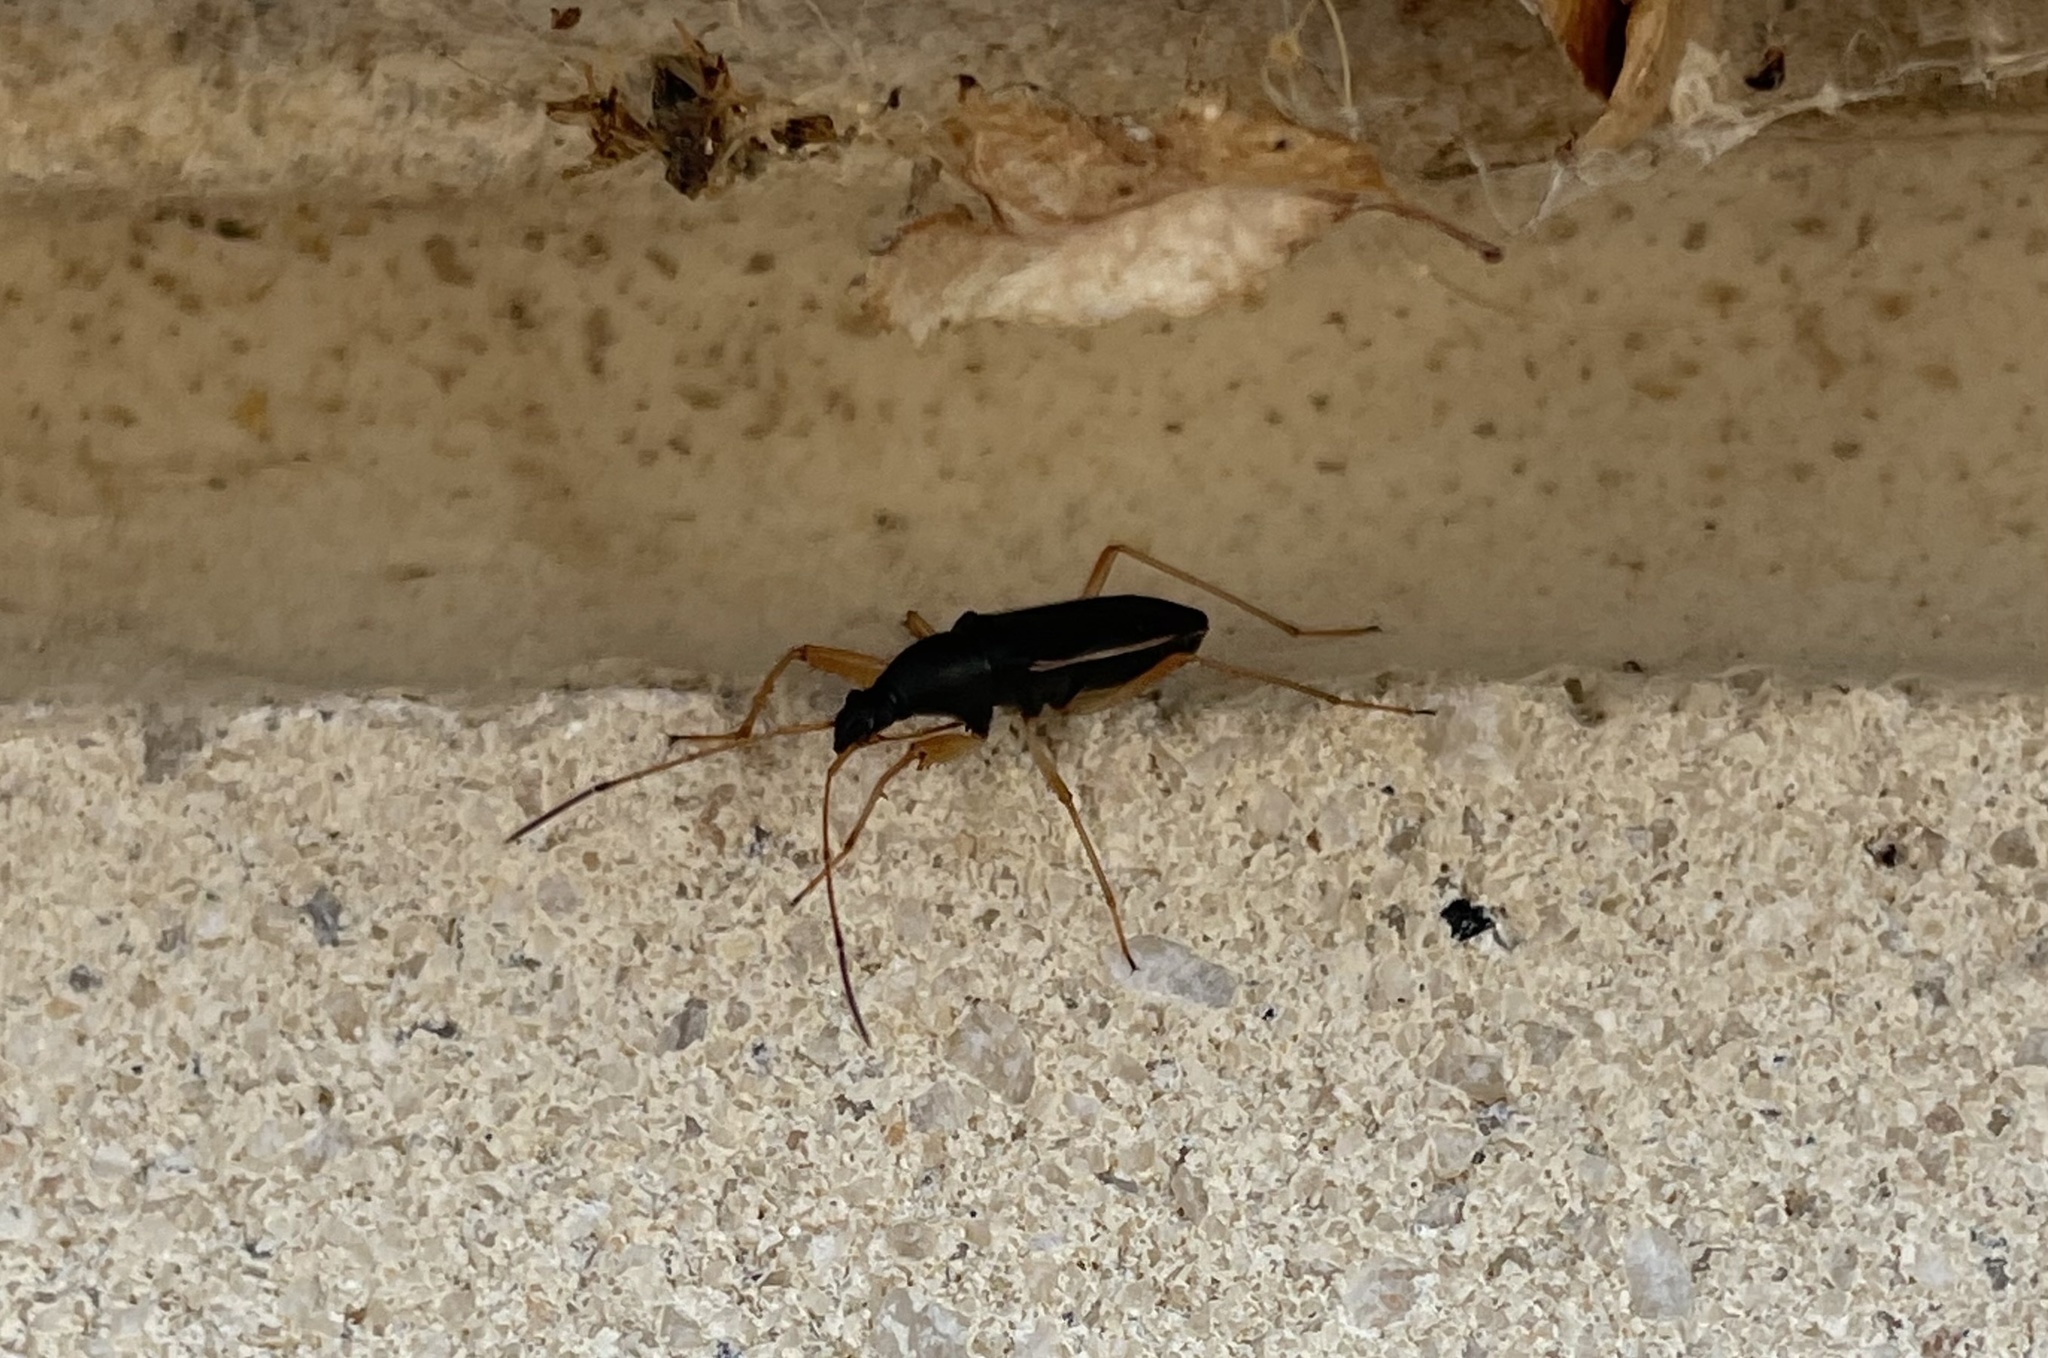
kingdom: Animalia
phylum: Arthropoda
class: Insecta
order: Hemiptera
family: Rhyparochromidae
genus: Cnemodus
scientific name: Cnemodus mavortius
